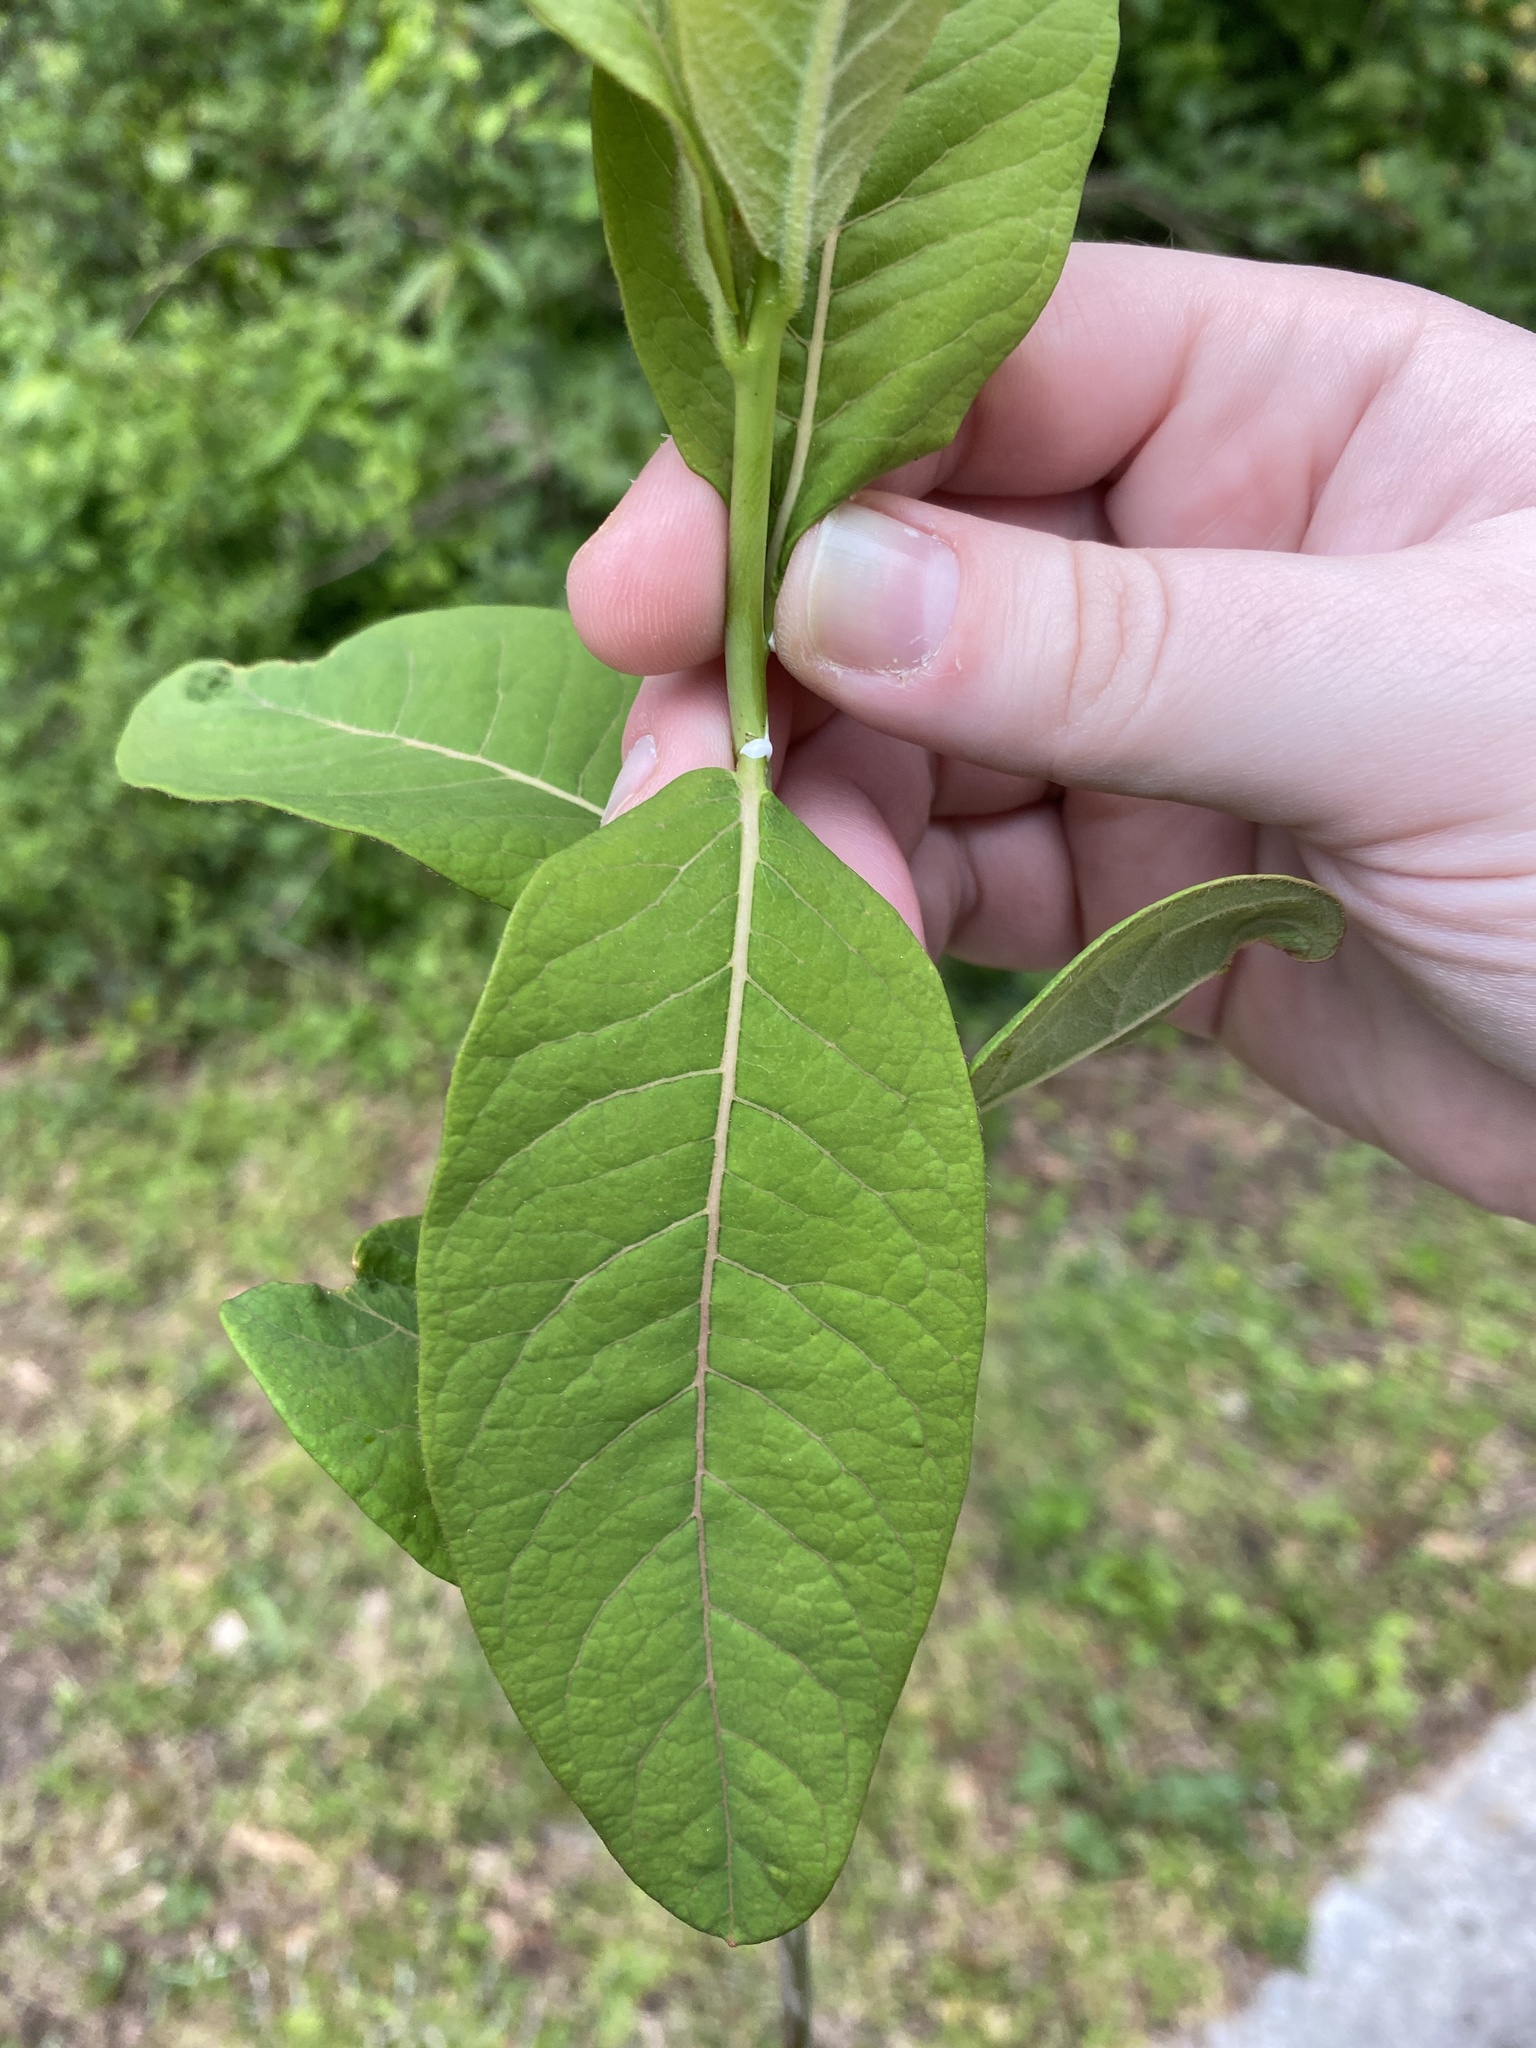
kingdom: Plantae
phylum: Tracheophyta
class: Magnoliopsida
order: Gentianales
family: Apocynaceae
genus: Asclepias
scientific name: Asclepias syriaca
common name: Common milkweed
